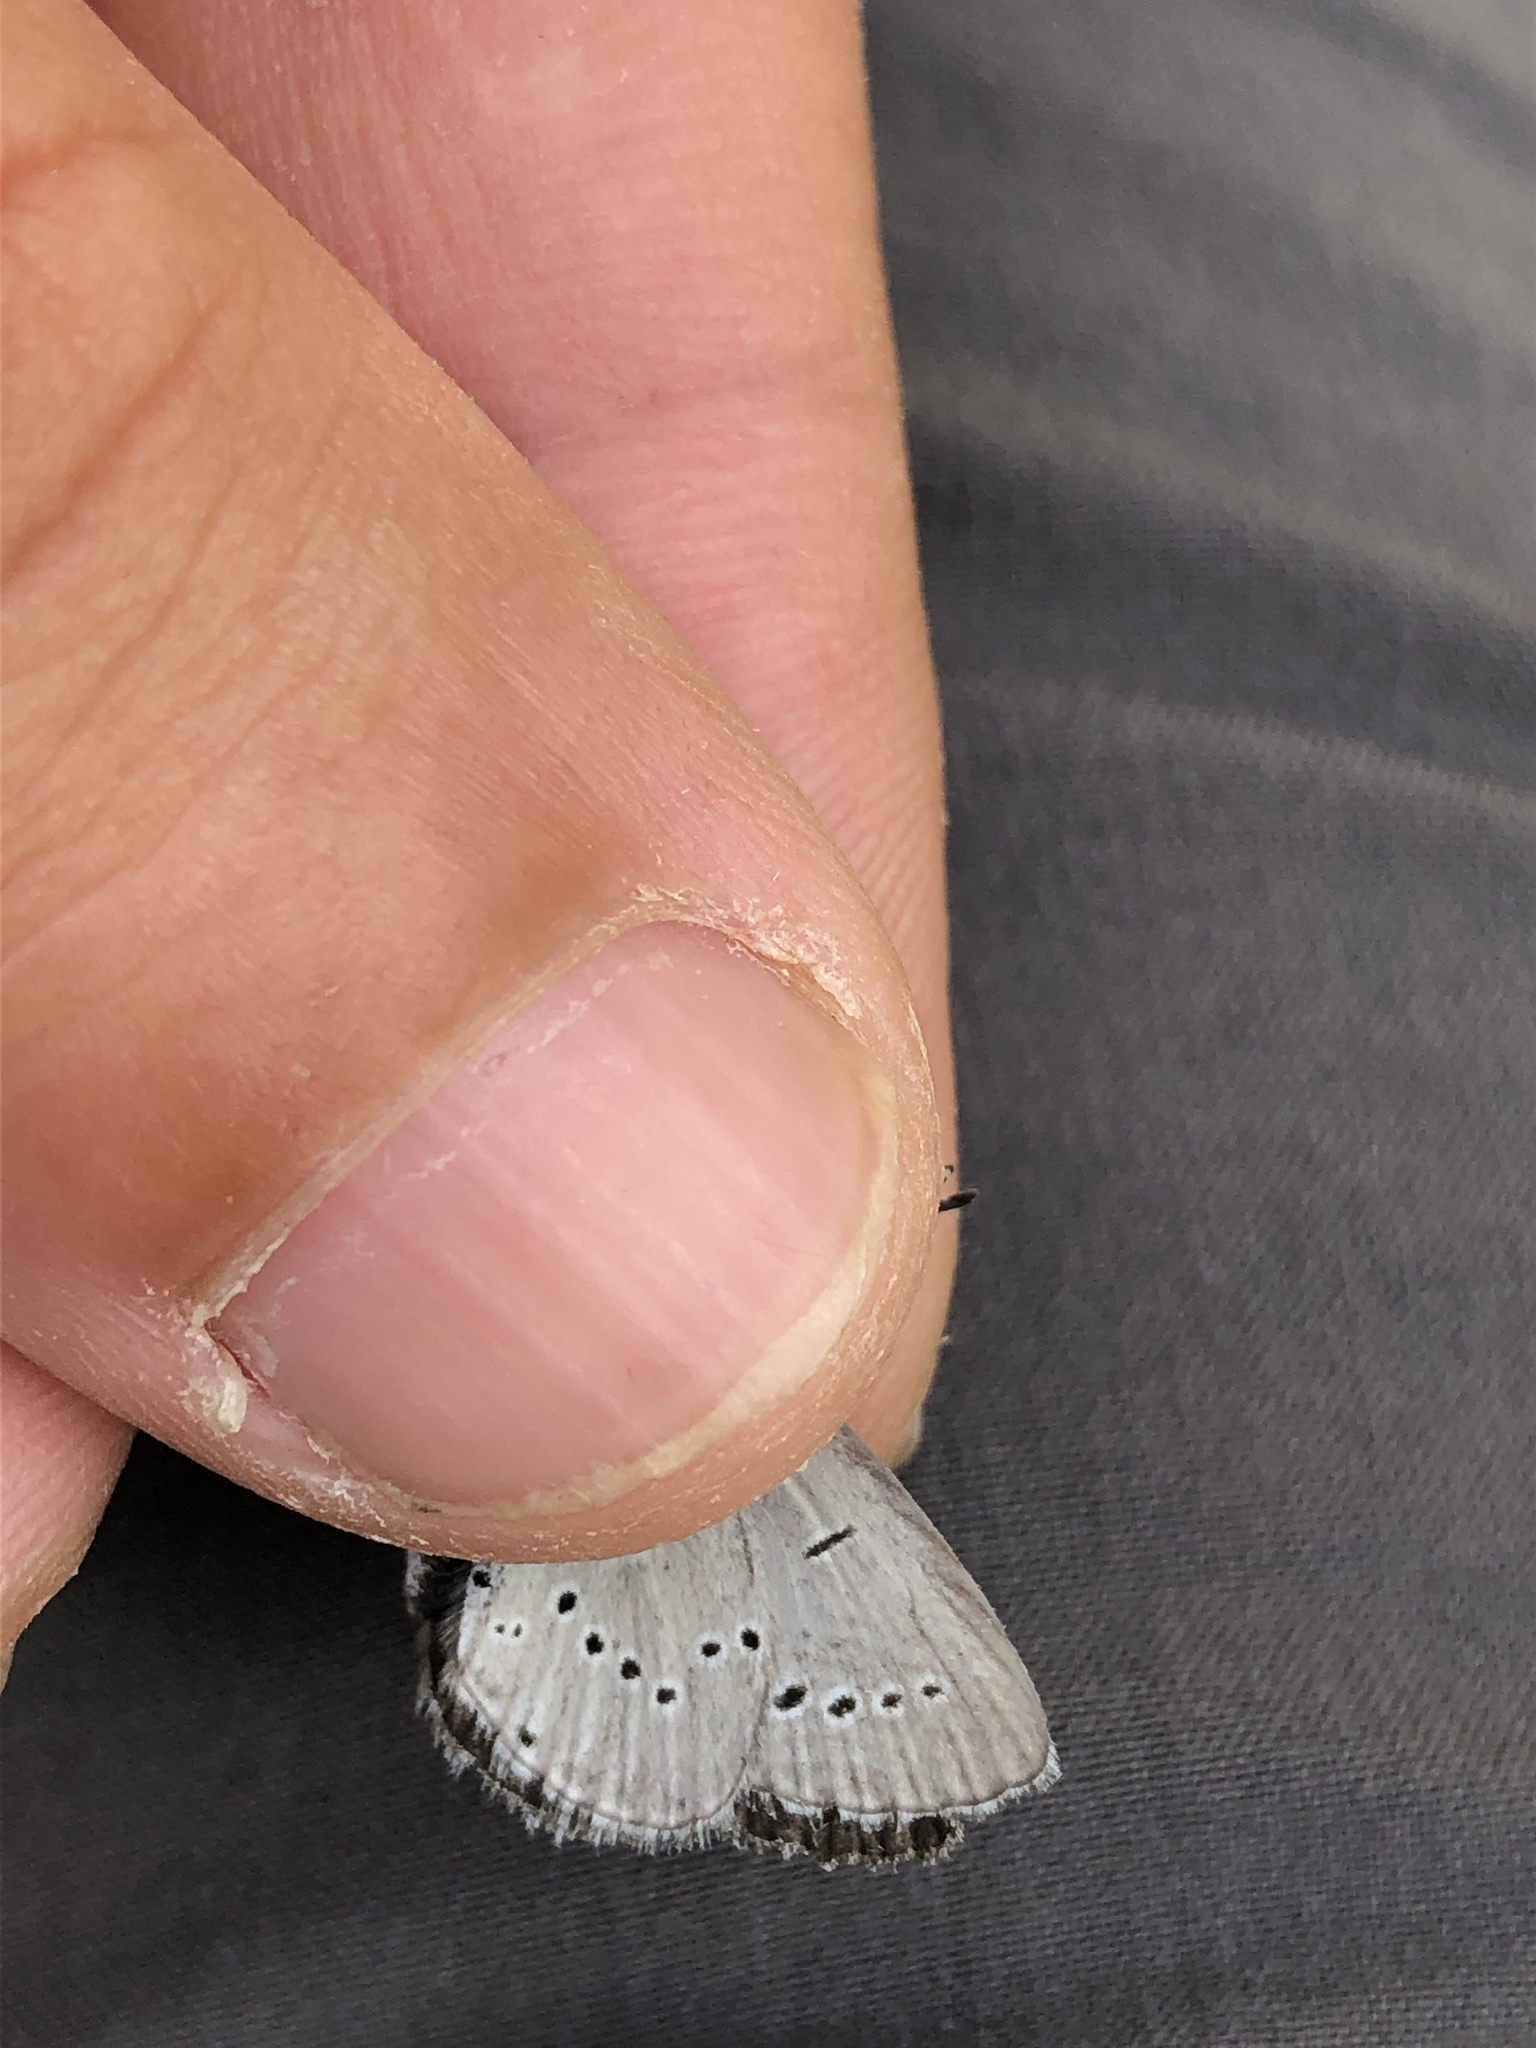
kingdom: Animalia
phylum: Arthropoda
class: Insecta
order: Lepidoptera
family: Lycaenidae
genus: Cupido
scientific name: Cupido minimus
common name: Small blue
